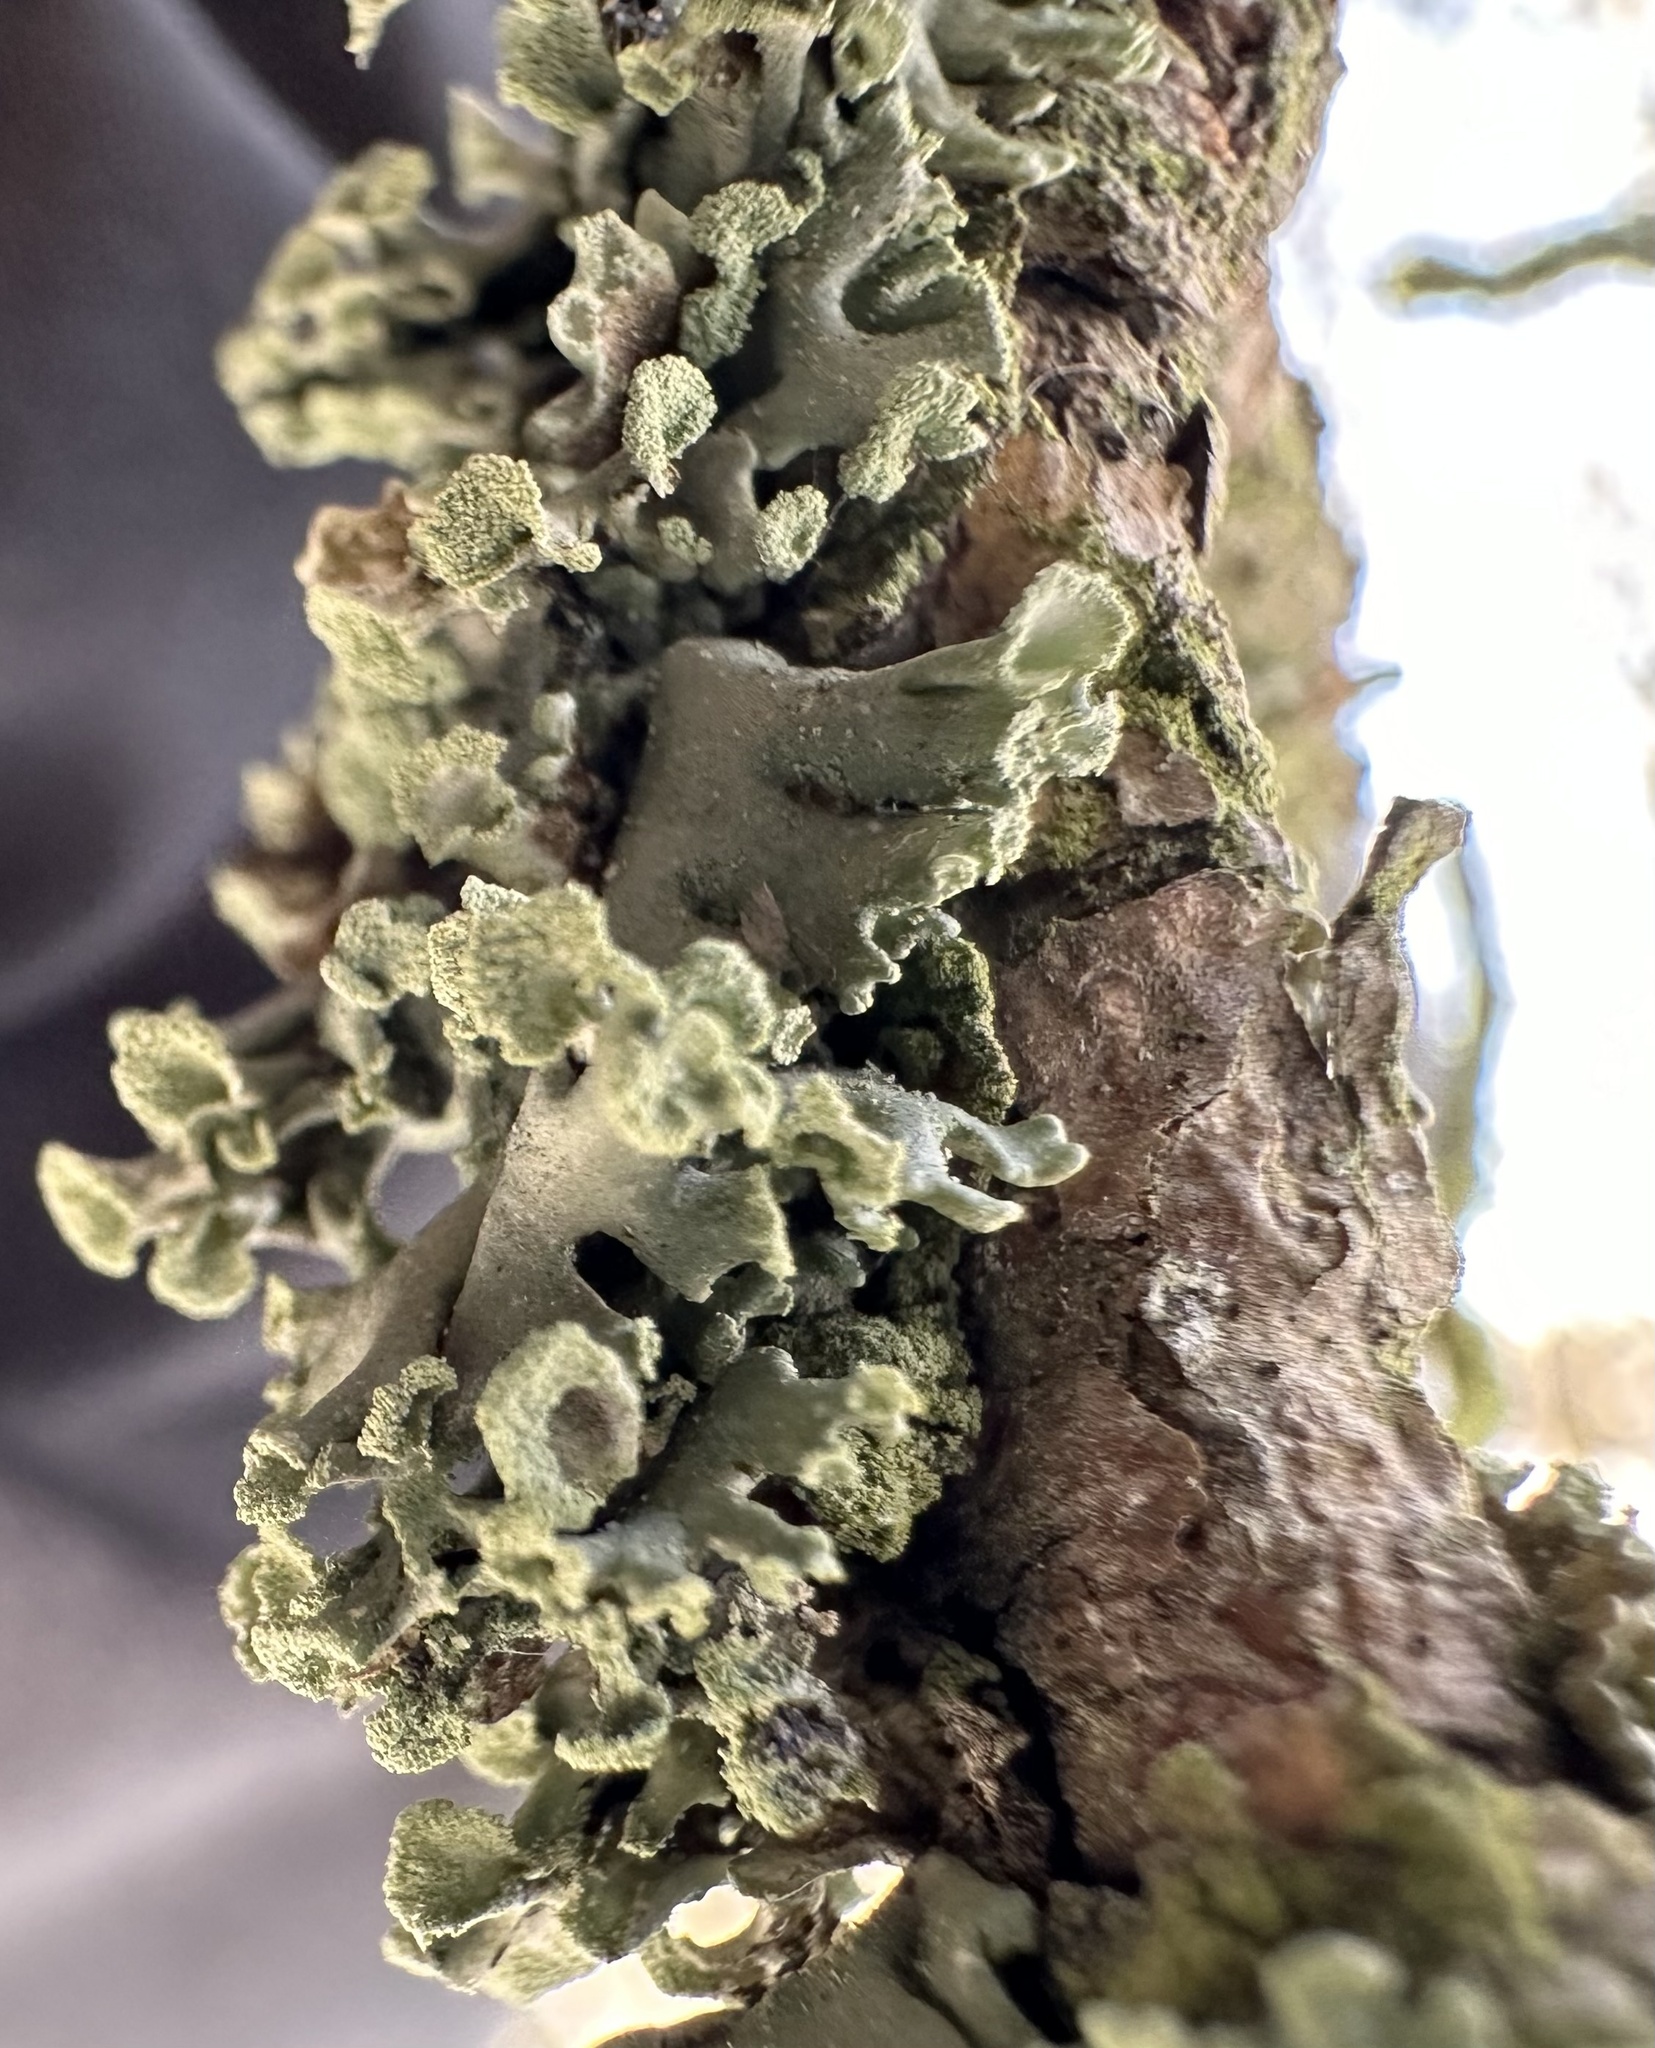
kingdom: Fungi
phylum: Ascomycota
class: Lecanoromycetes
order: Lecanorales
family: Parmeliaceae
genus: Hypogymnia
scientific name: Hypogymnia physodes
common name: Dark crottle
